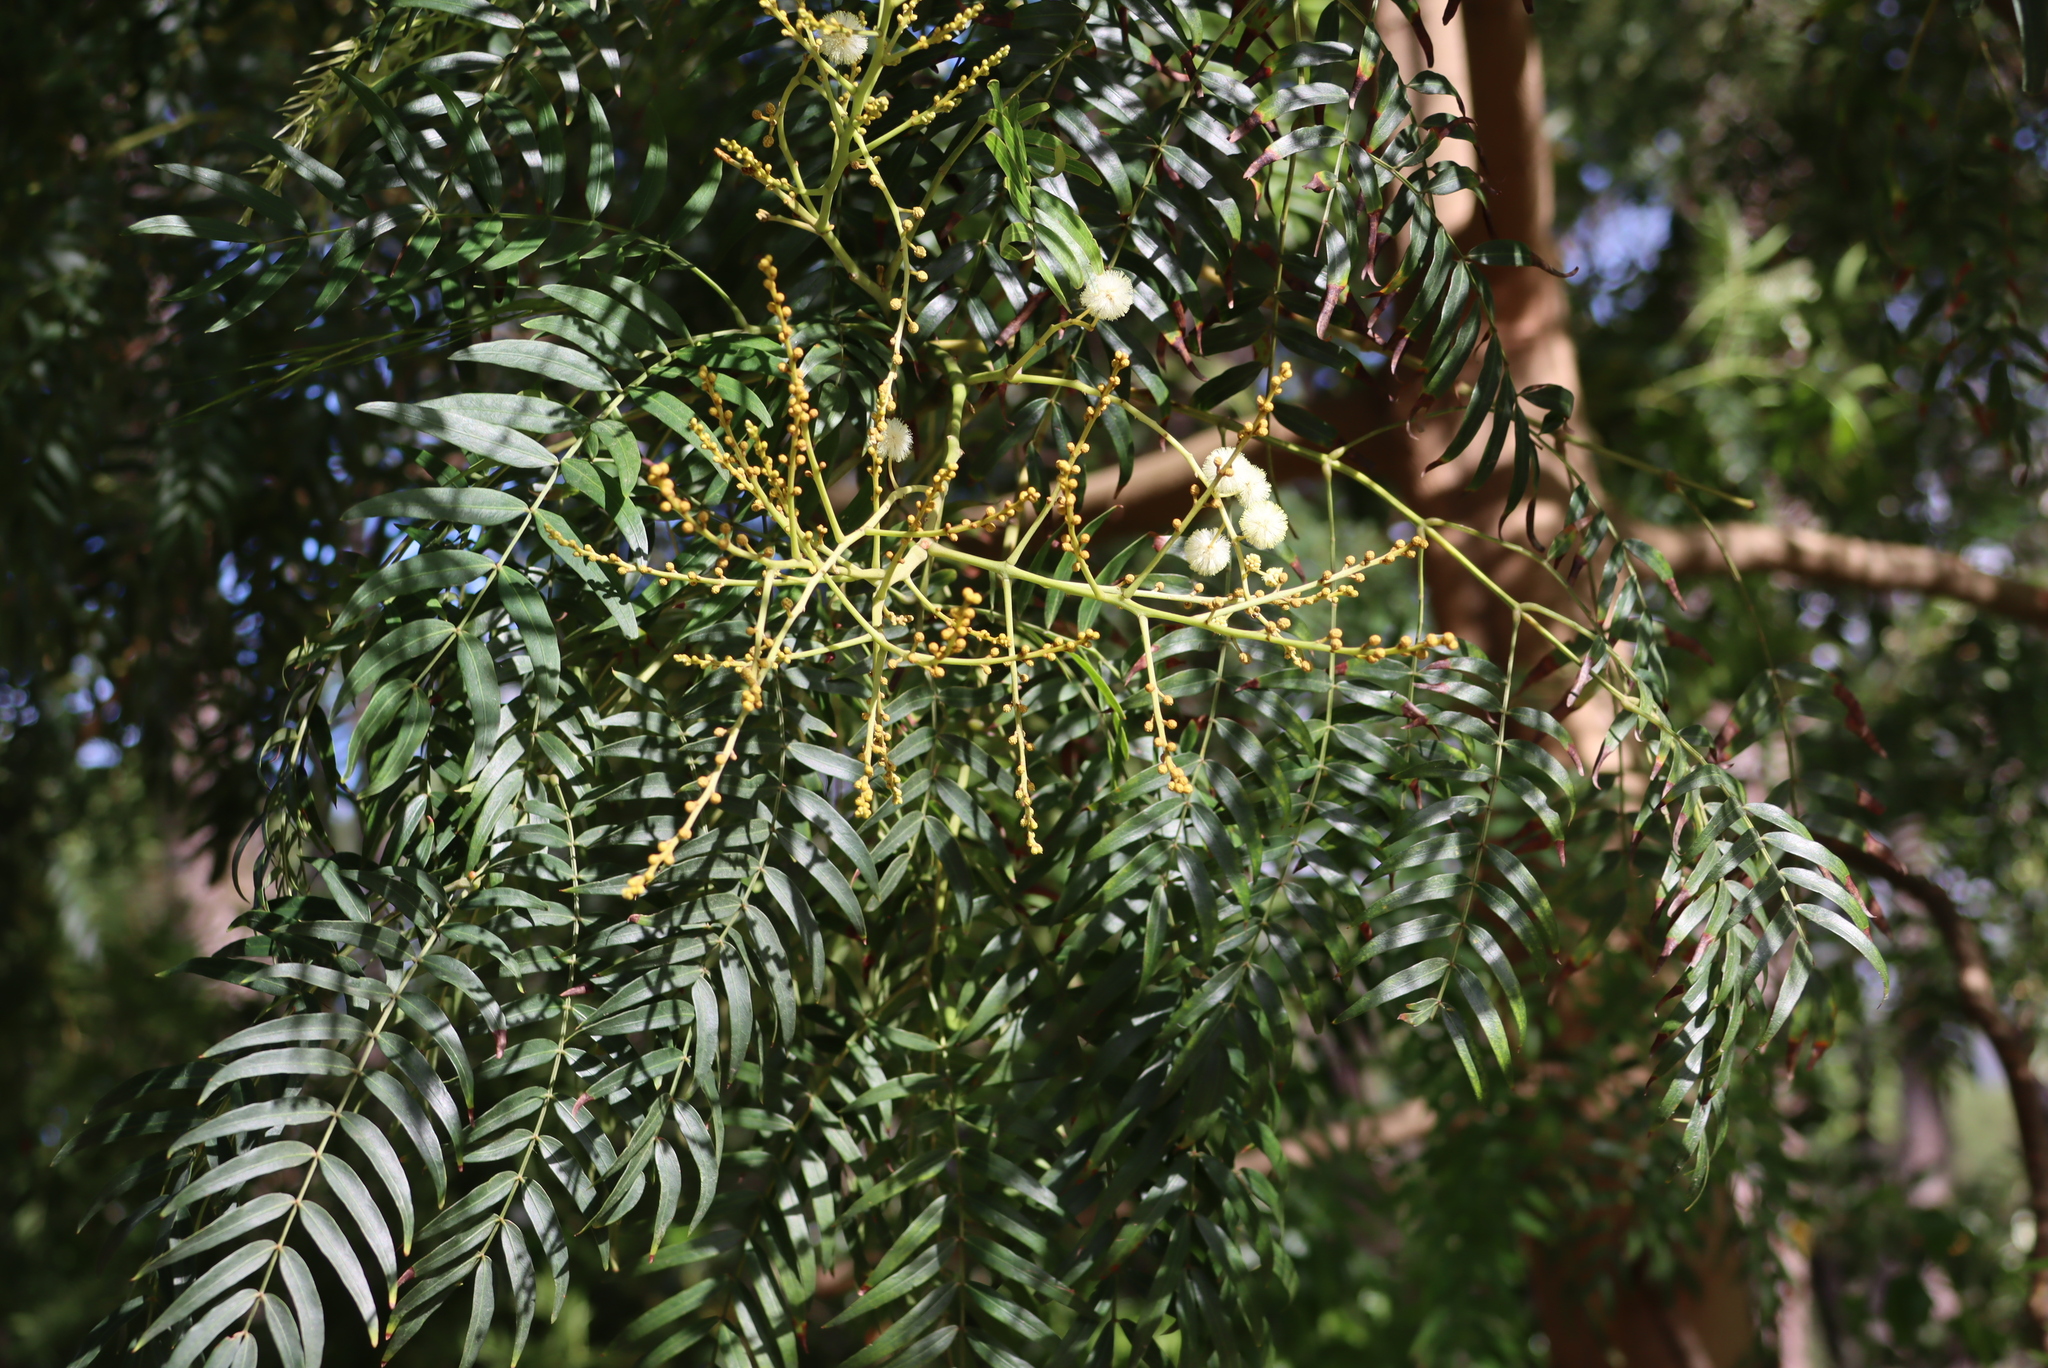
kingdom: Plantae
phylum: Tracheophyta
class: Magnoliopsida
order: Fabales
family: Fabaceae
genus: Acacia
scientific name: Acacia elata
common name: Cedar wattle
